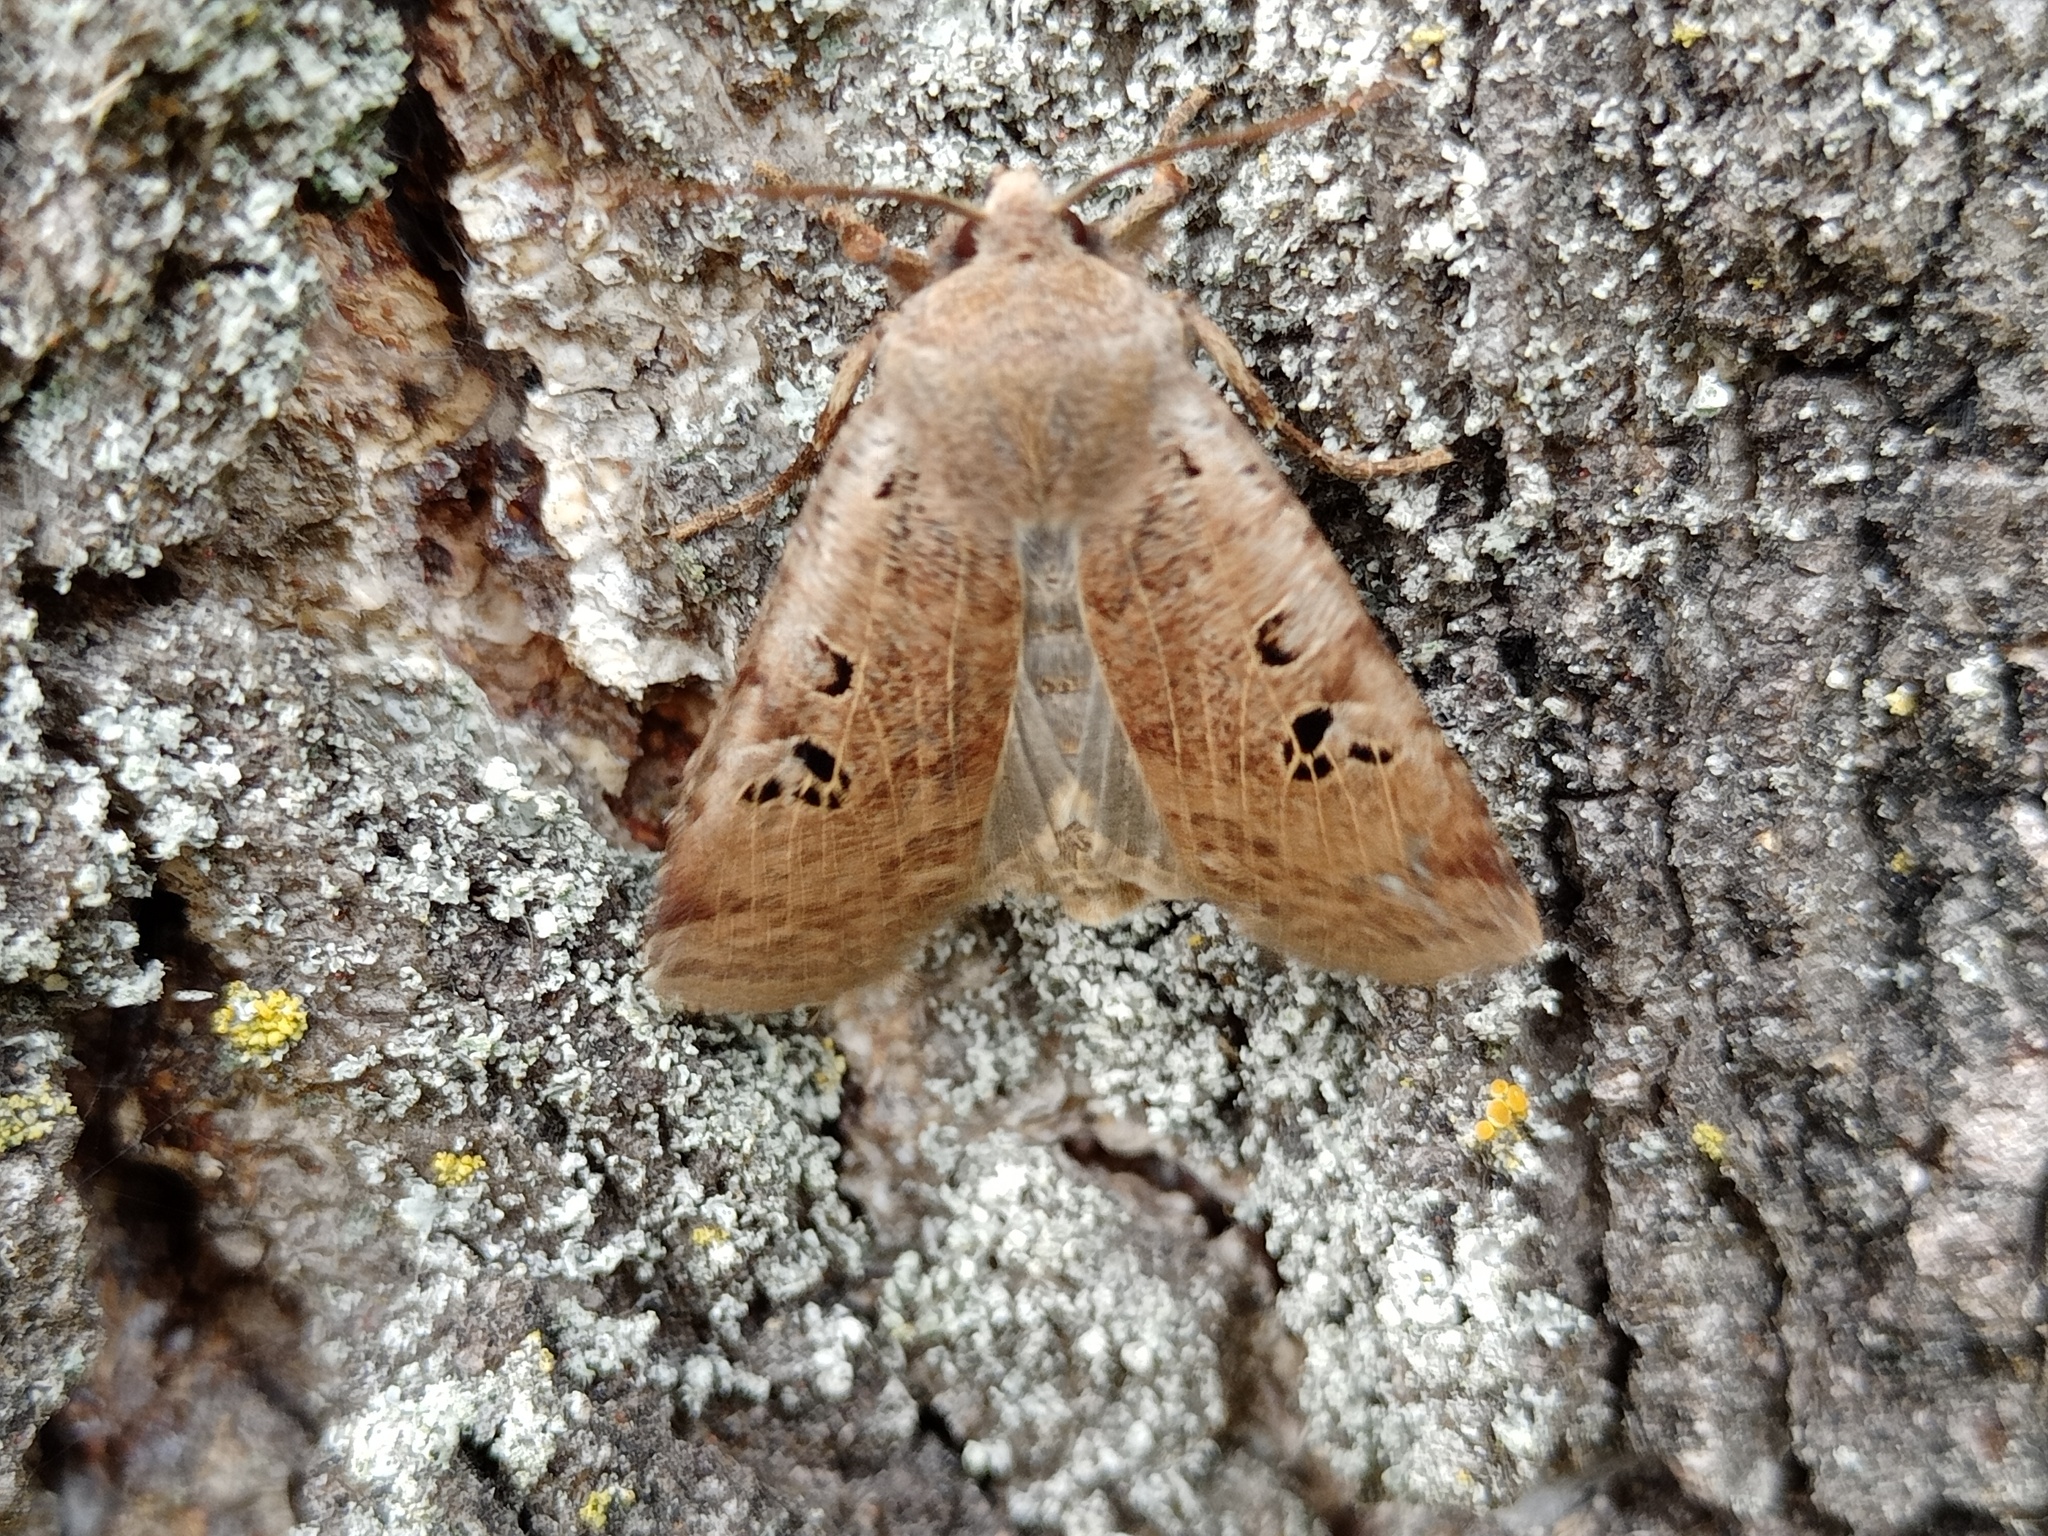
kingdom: Animalia
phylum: Arthropoda
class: Insecta
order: Lepidoptera
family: Noctuidae
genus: Conistra
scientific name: Conistra rubiginosa
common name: Black-spotted chestnut
